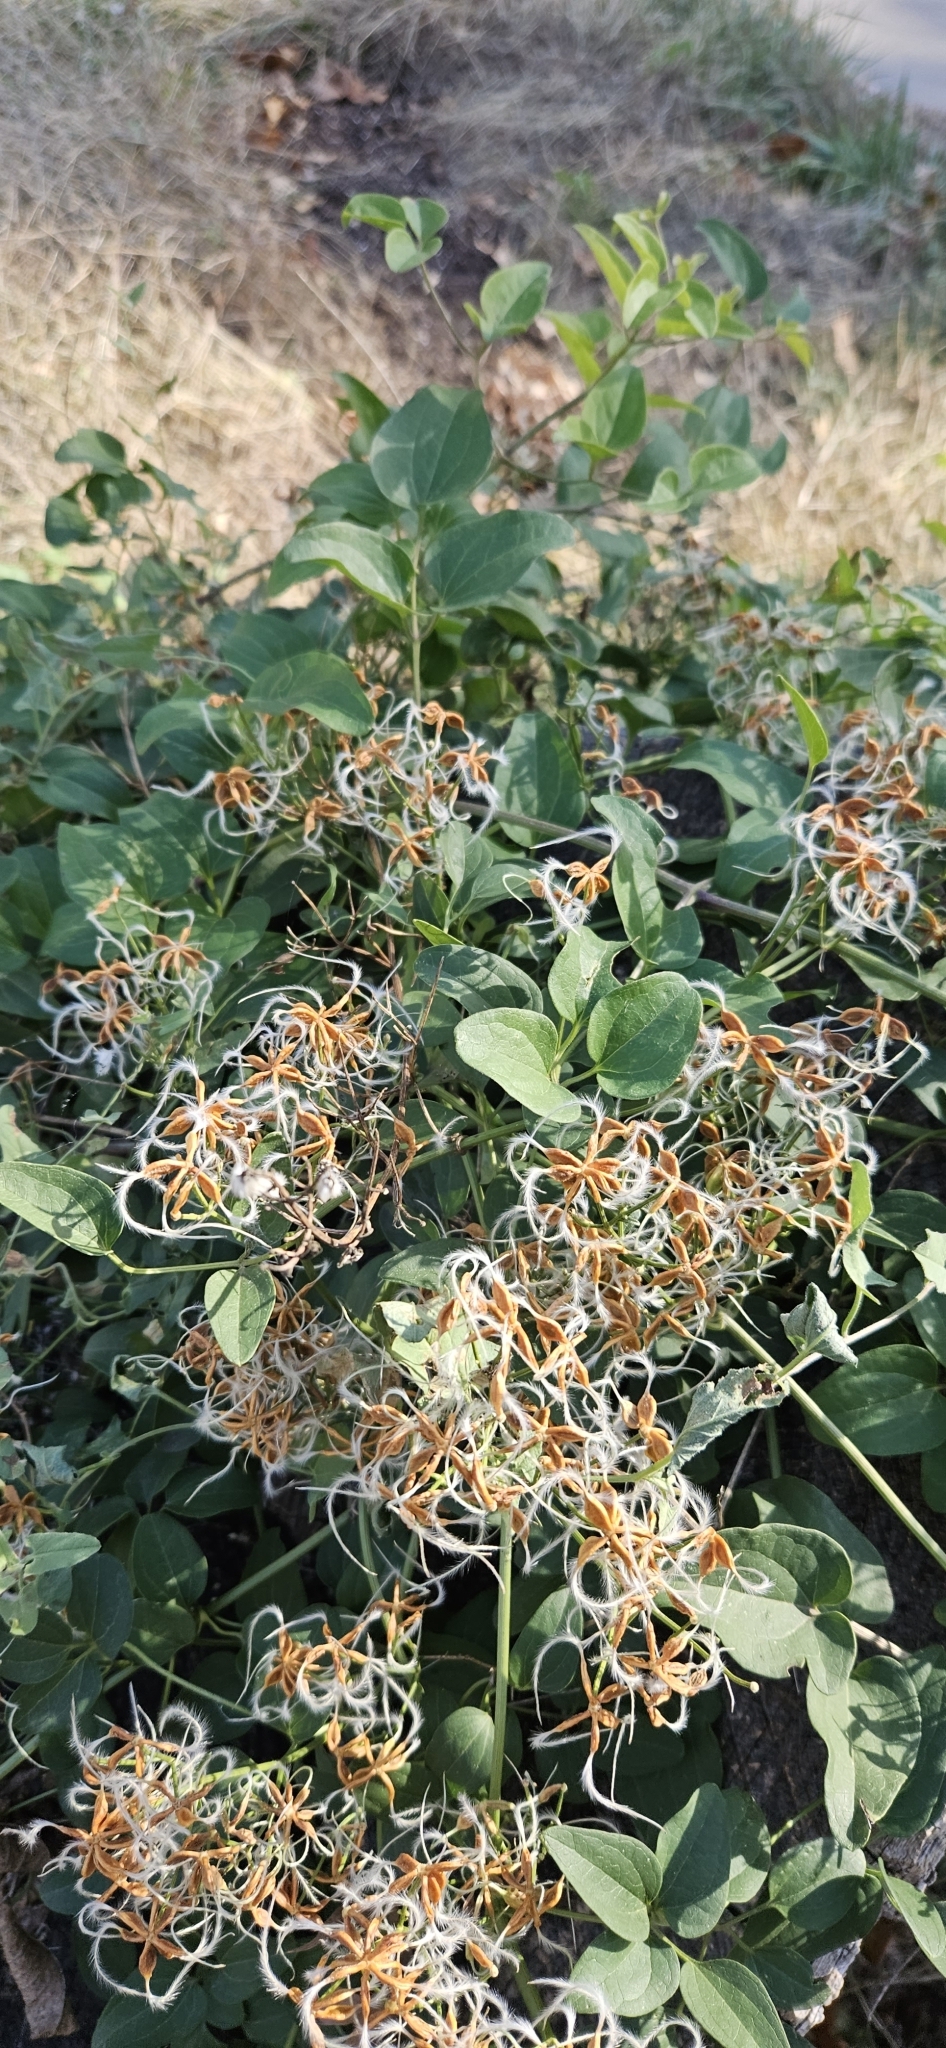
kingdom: Plantae
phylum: Tracheophyta
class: Magnoliopsida
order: Ranunculales
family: Ranunculaceae
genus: Clematis
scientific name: Clematis terniflora
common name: Sweet autumn clematis
